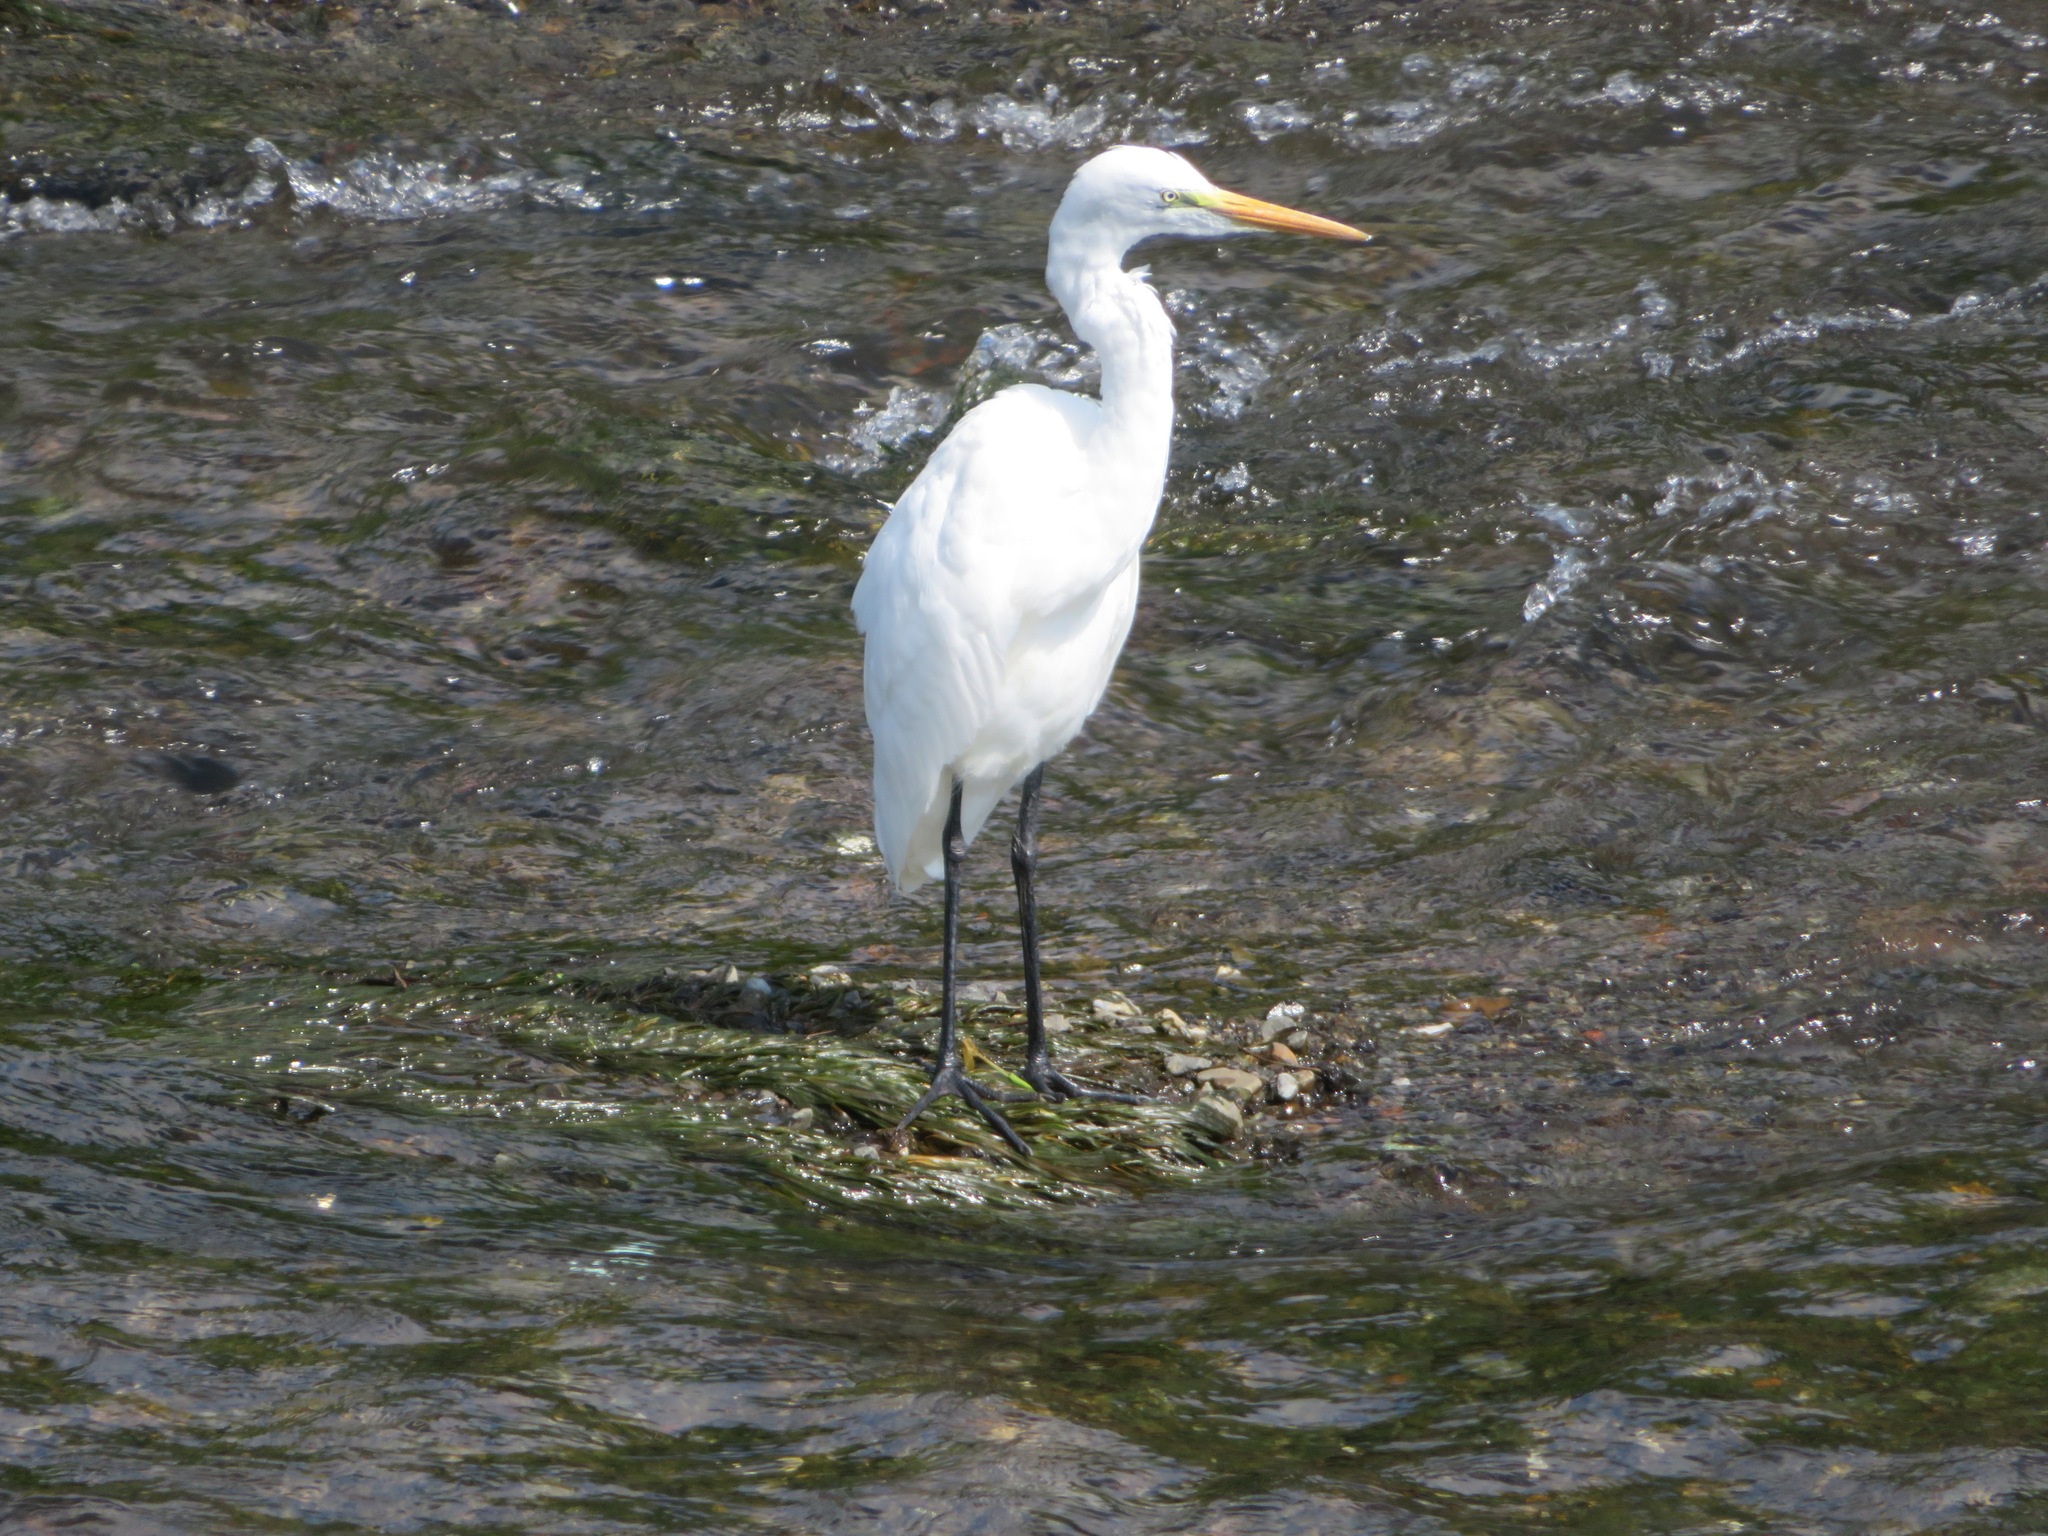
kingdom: Animalia
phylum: Chordata
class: Aves
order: Pelecaniformes
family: Ardeidae
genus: Ardea
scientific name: Ardea alba
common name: Great egret
